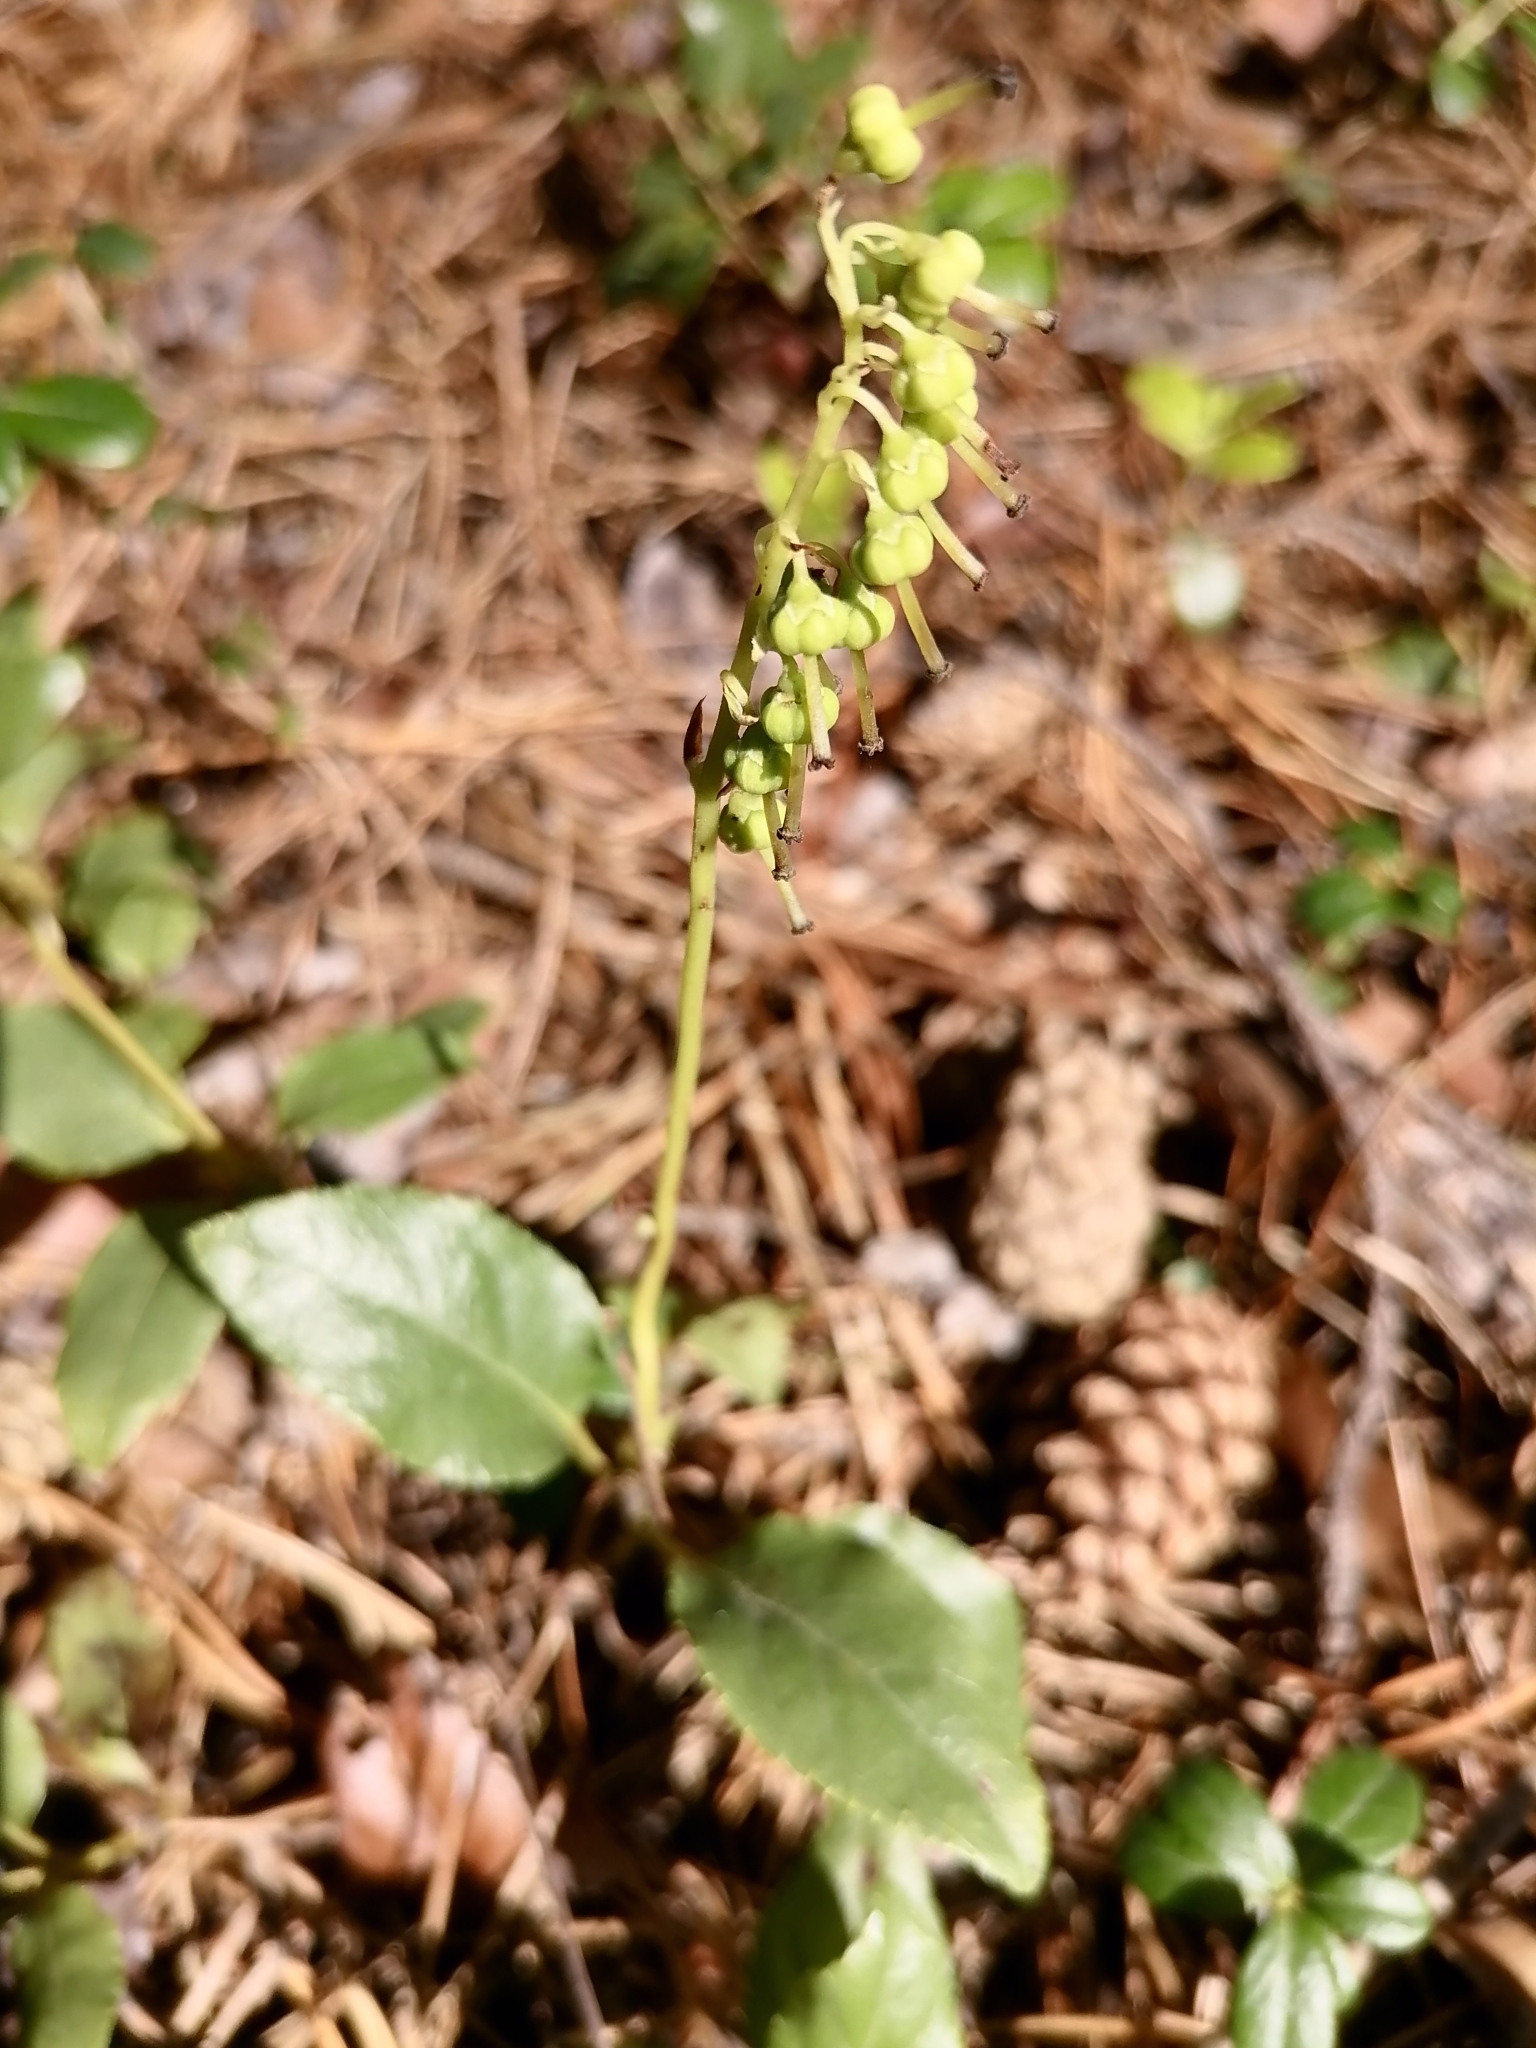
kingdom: Plantae
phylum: Tracheophyta
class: Magnoliopsida
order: Ericales
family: Ericaceae
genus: Orthilia
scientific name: Orthilia secunda
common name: One-sided orthilia
